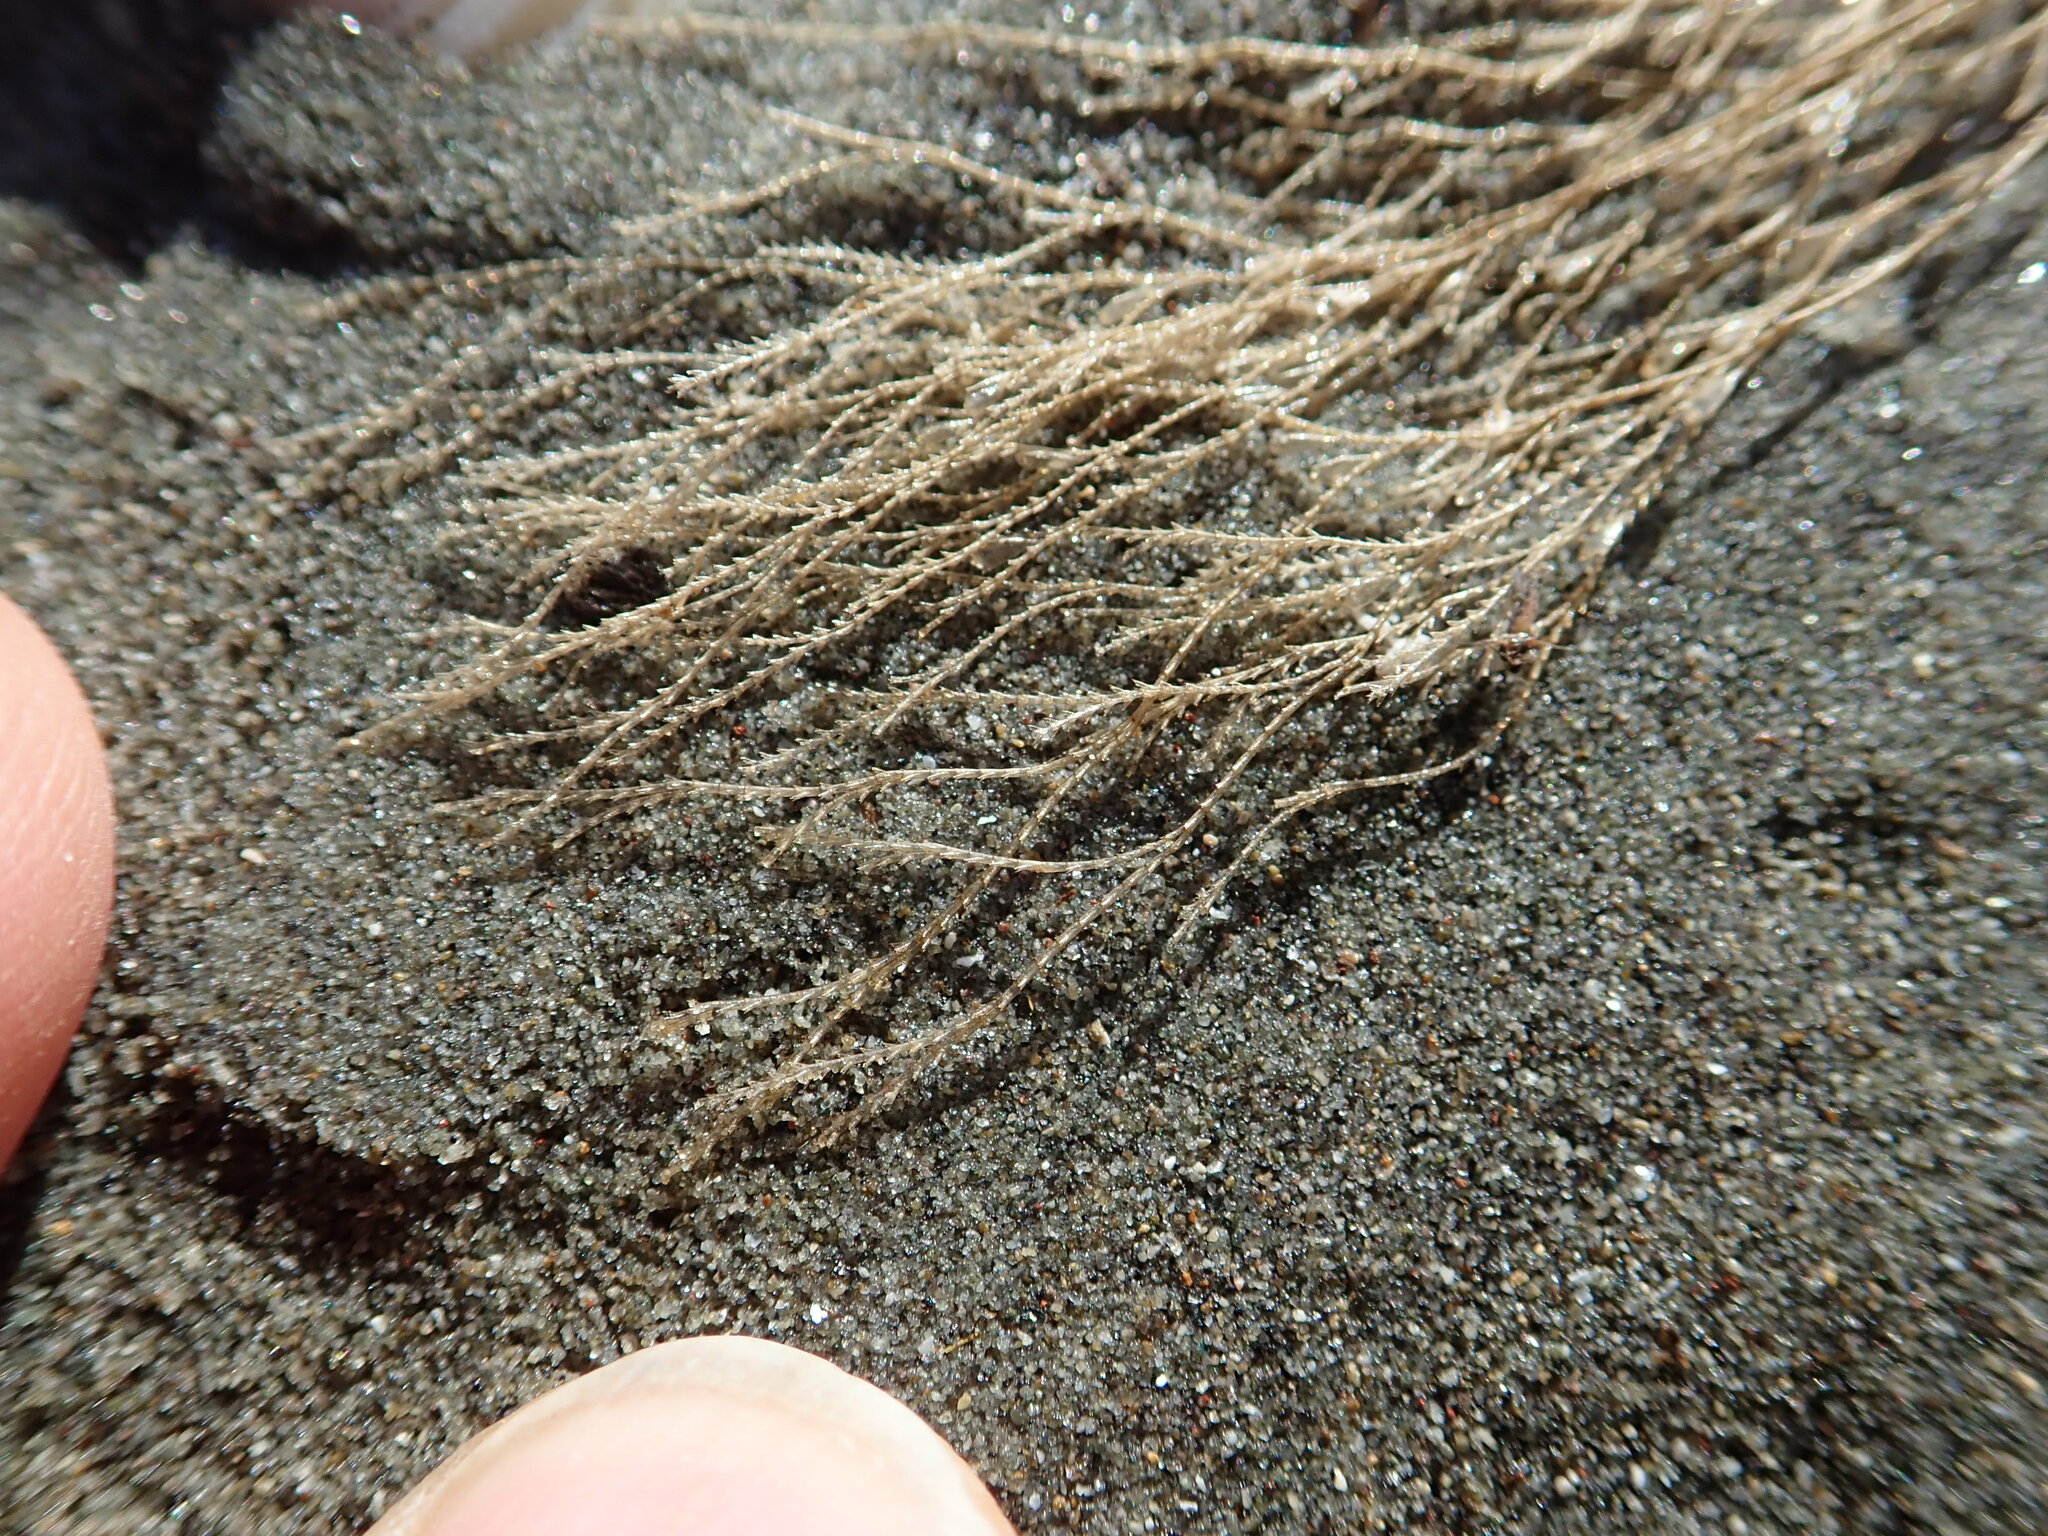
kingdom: Animalia
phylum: Cnidaria
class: Hydrozoa
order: Leptothecata
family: Sertulariidae
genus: Amphisbetia
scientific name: Amphisbetia bispinosa
